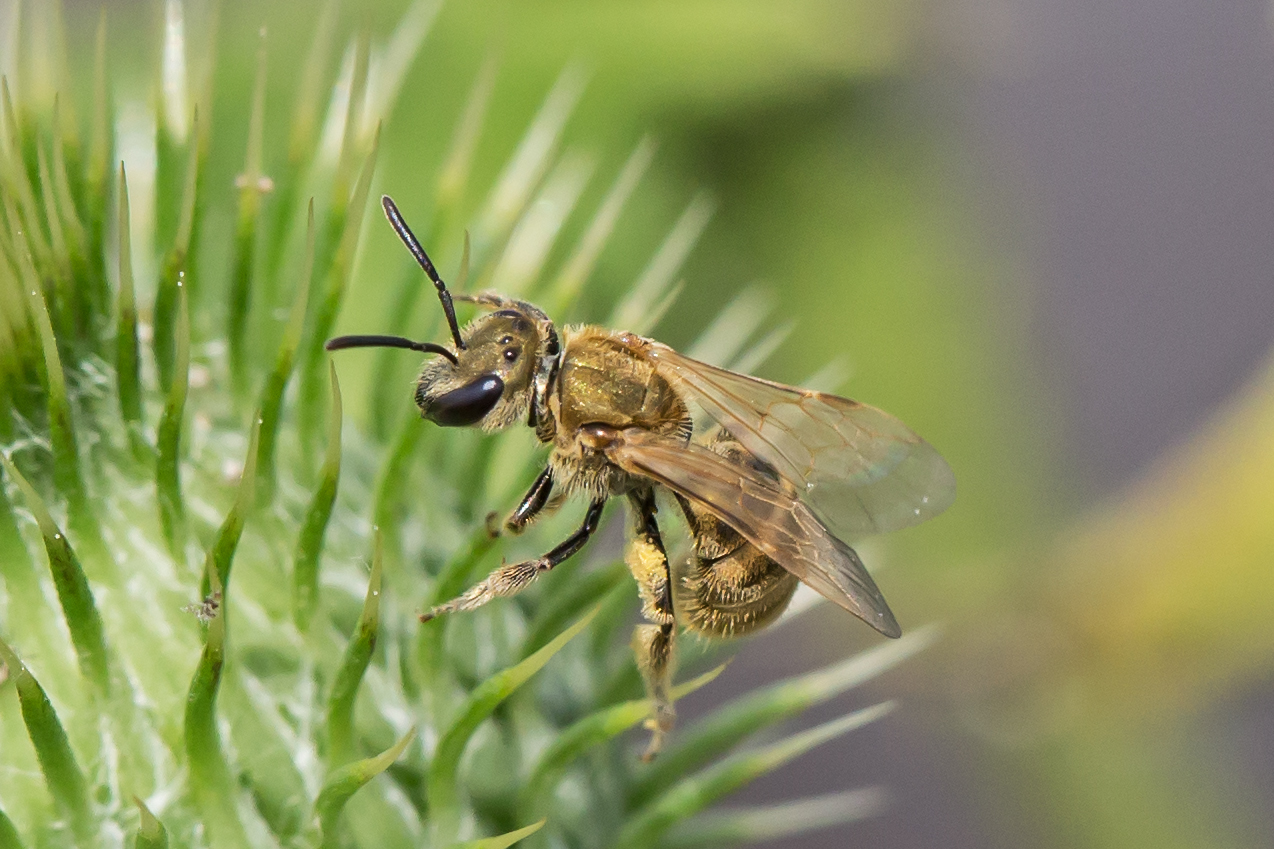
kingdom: Animalia
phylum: Arthropoda
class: Insecta
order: Hymenoptera
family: Halictidae
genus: Lasioglossum
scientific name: Lasioglossum pilosum
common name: Hairy metallic-sweat bee
